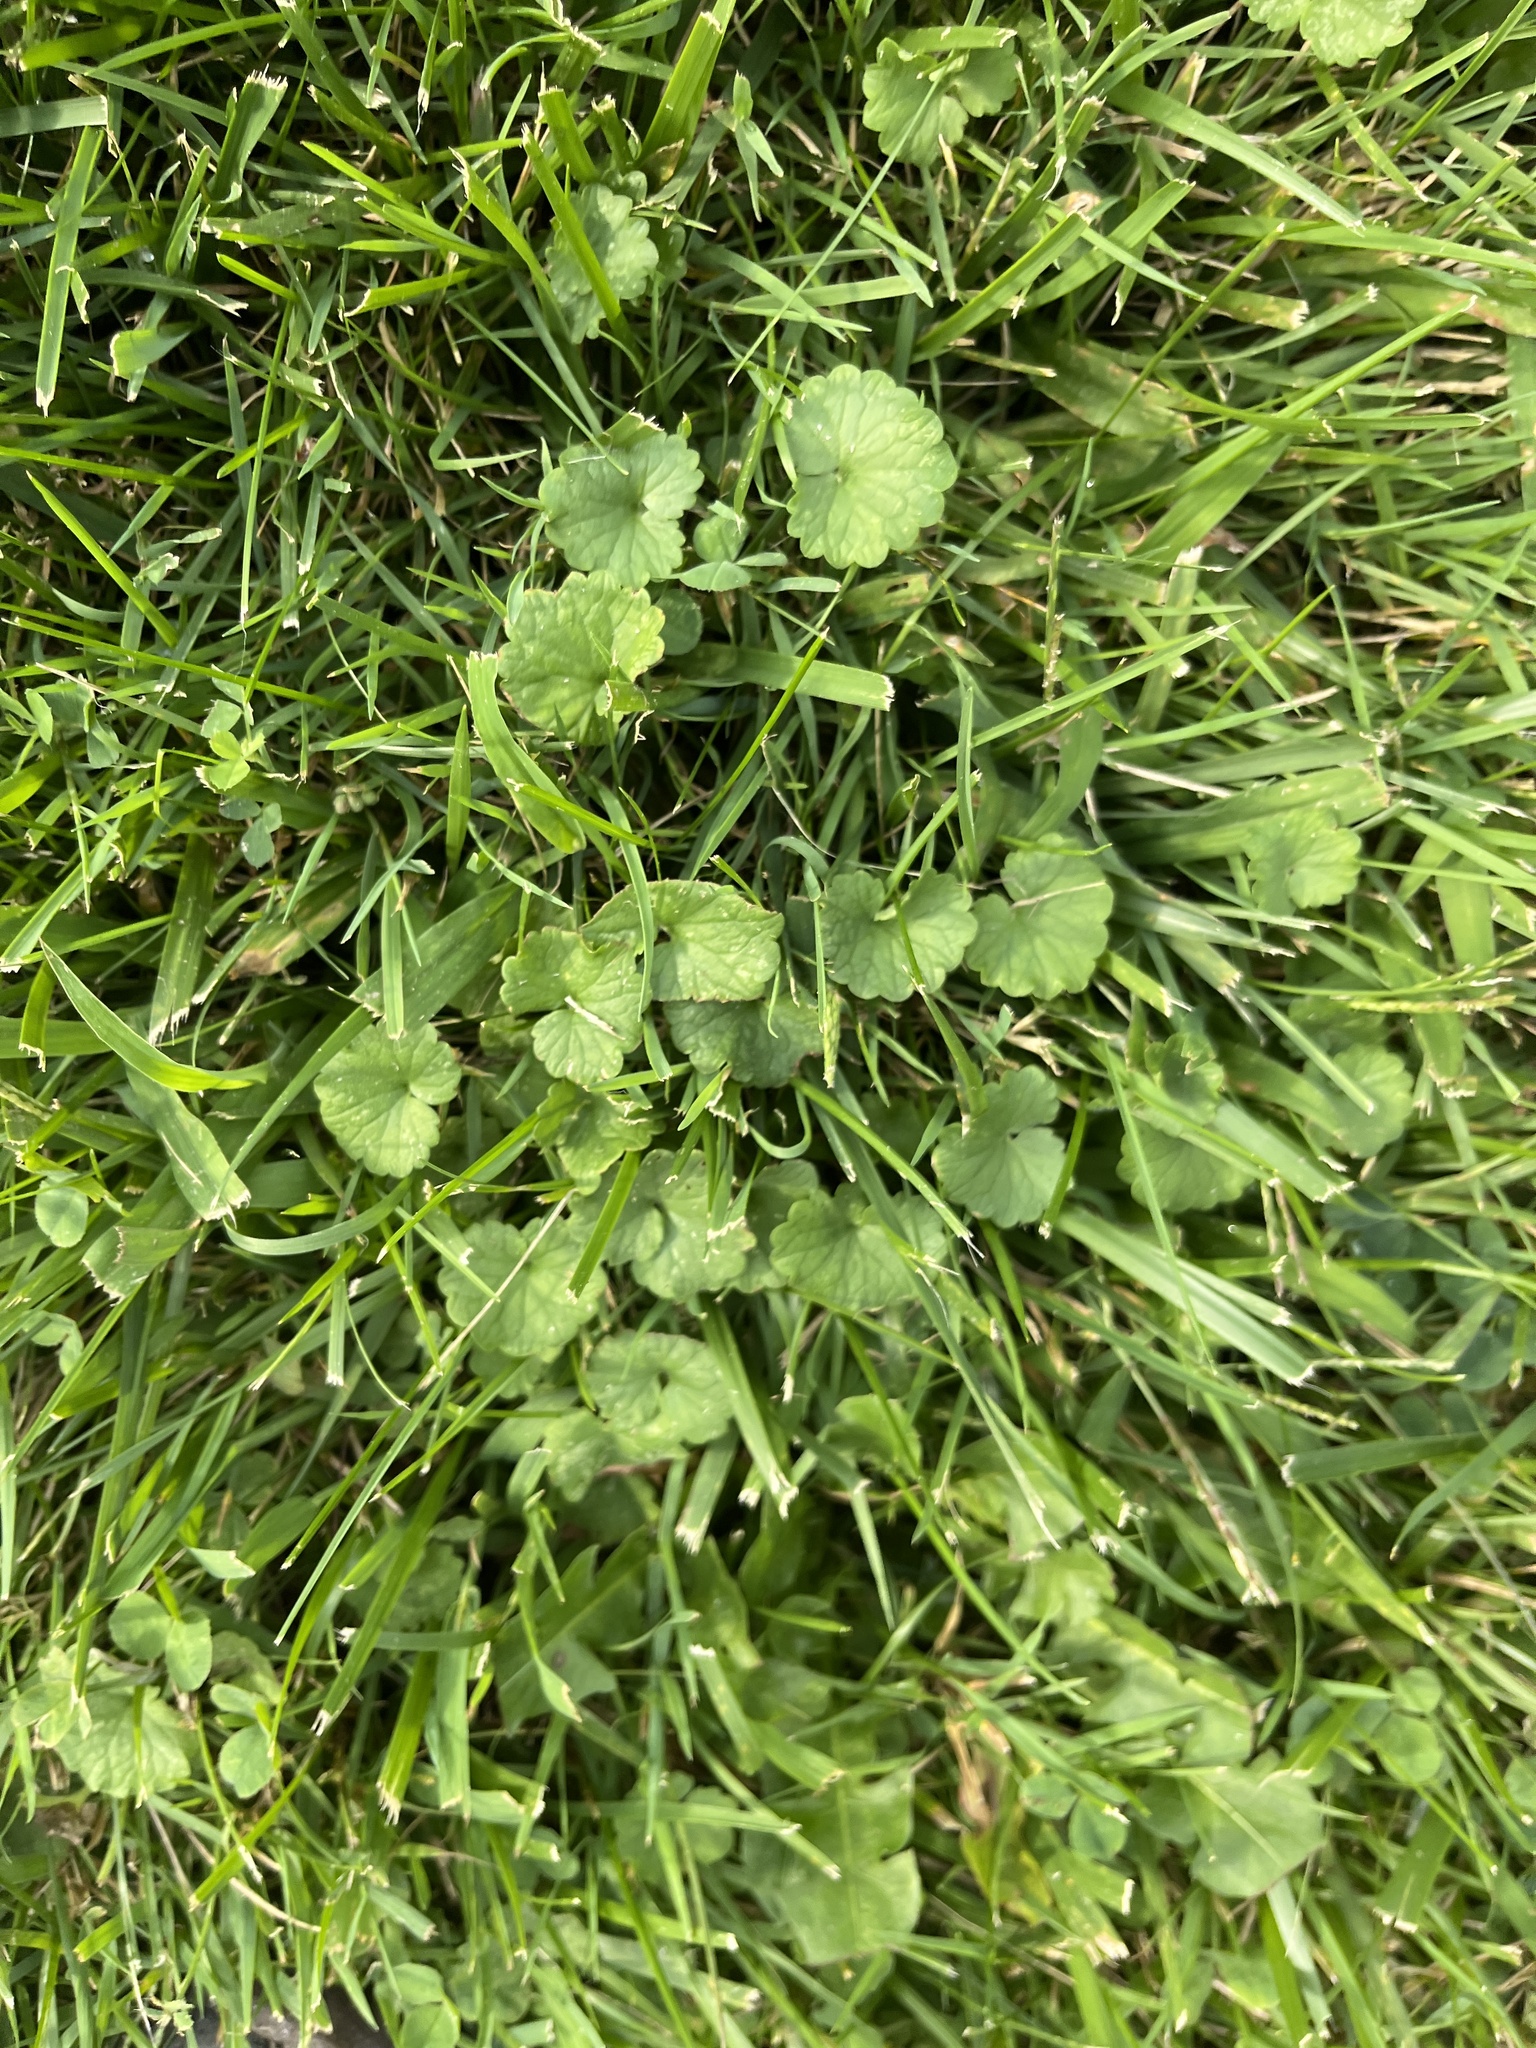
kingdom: Plantae
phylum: Tracheophyta
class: Magnoliopsida
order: Lamiales
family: Lamiaceae
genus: Glechoma
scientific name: Glechoma hederacea
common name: Ground ivy
